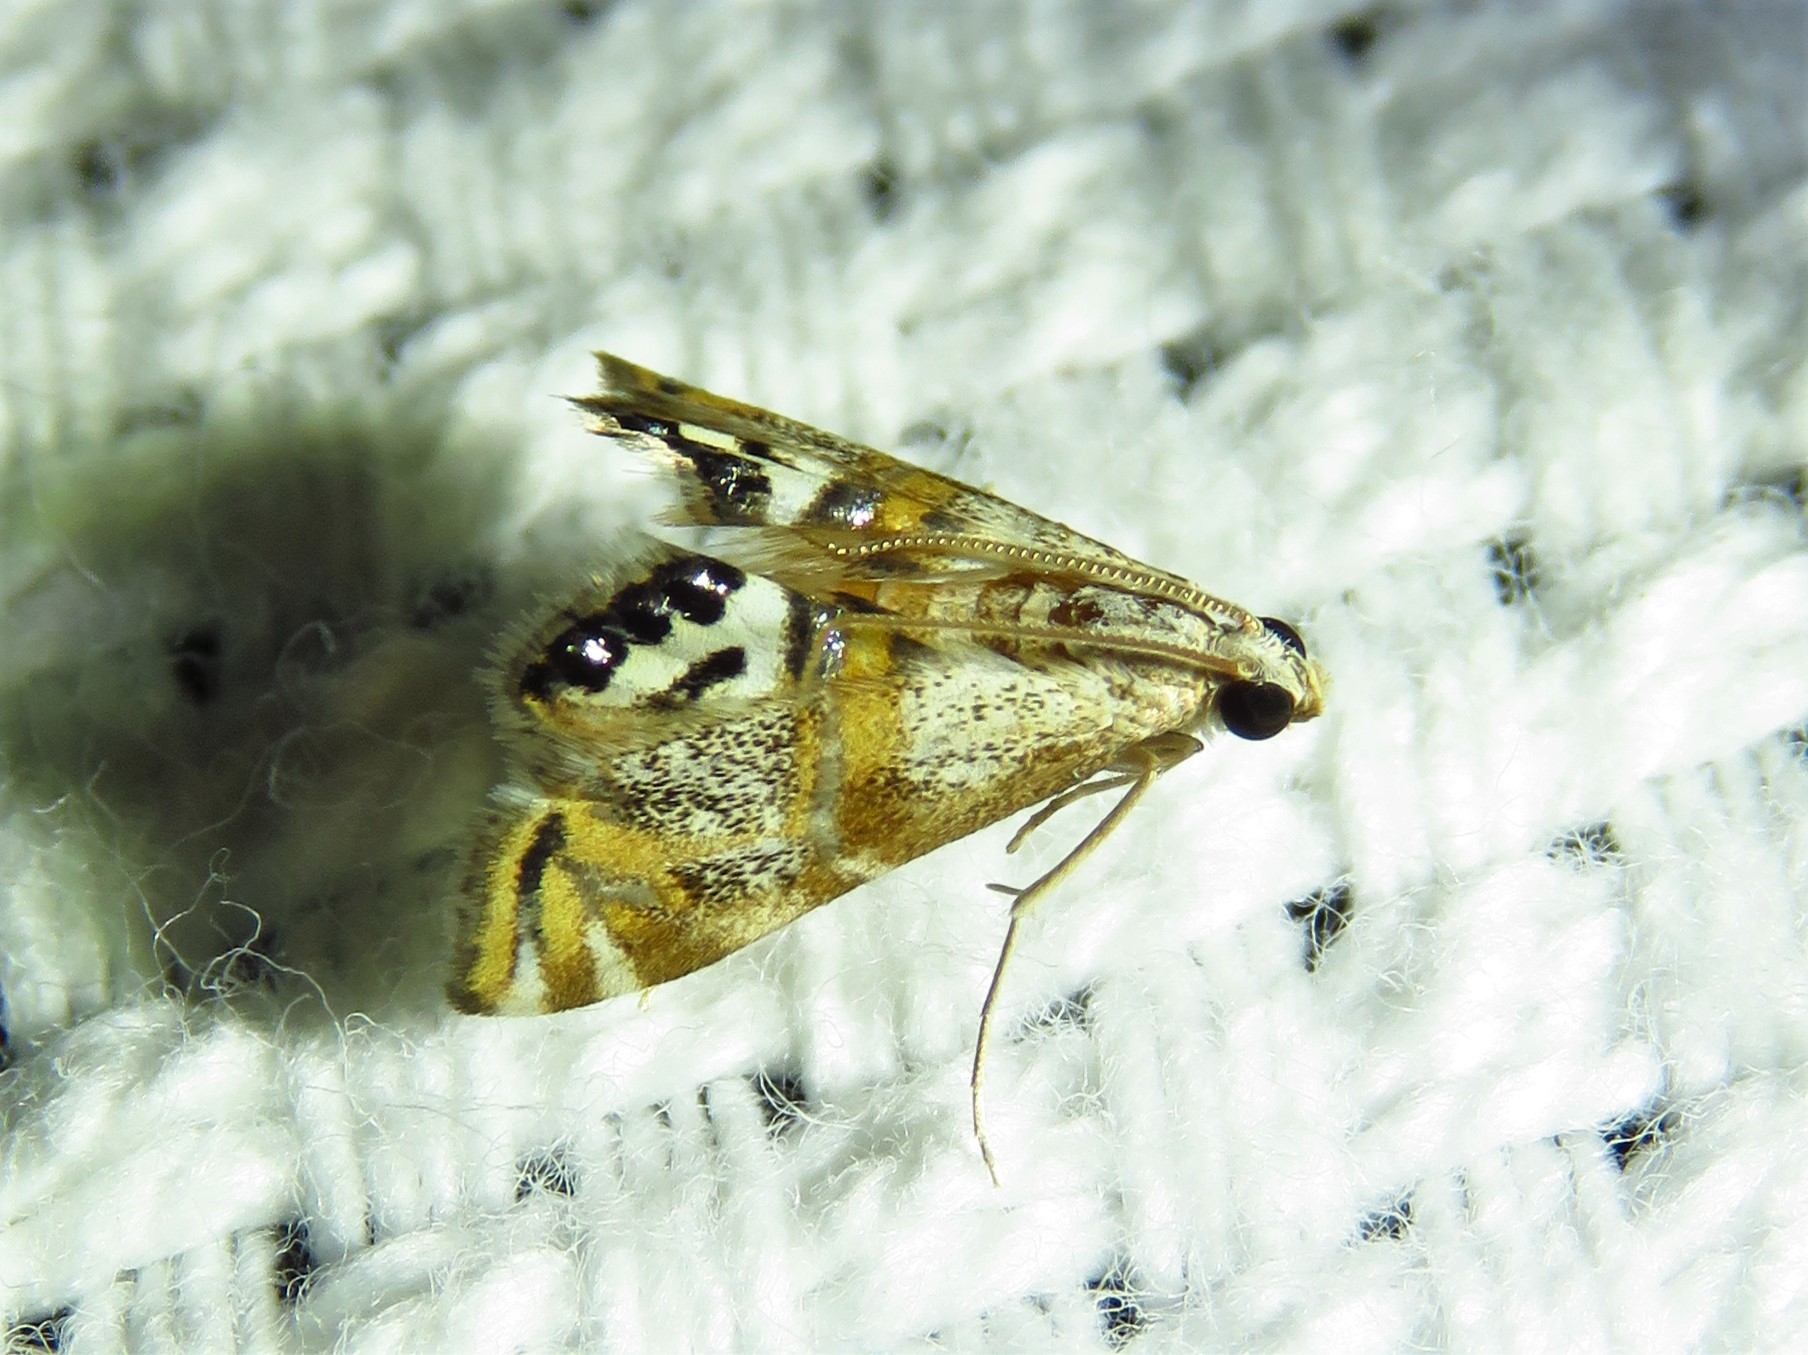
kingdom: Animalia
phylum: Arthropoda
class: Insecta
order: Lepidoptera
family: Crambidae
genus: Petrophila
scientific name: Petrophila bifascialis
